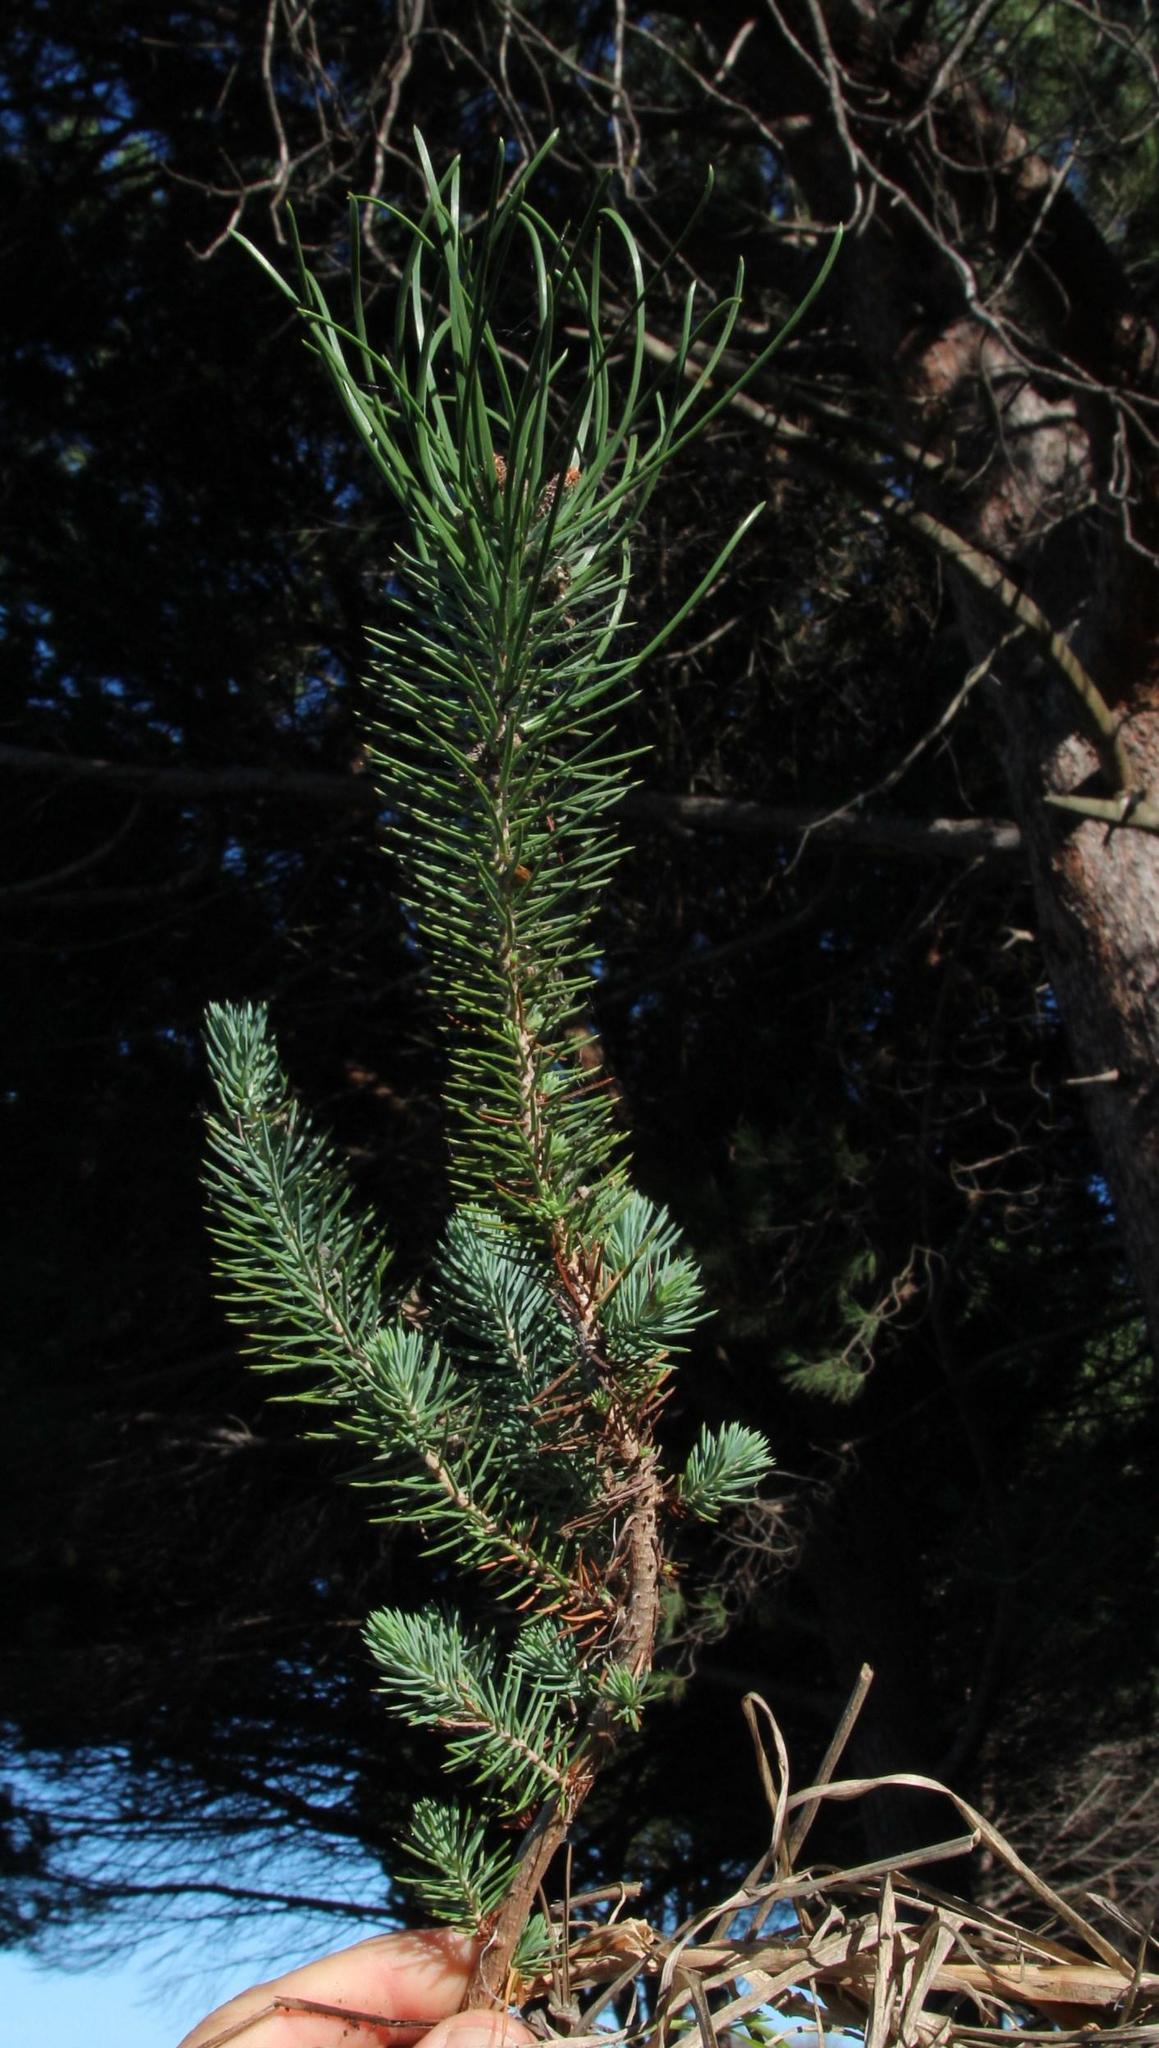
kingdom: Plantae
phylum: Tracheophyta
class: Pinopsida
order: Pinales
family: Pinaceae
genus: Pinus
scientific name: Pinus pinea
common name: Italian stone pine
